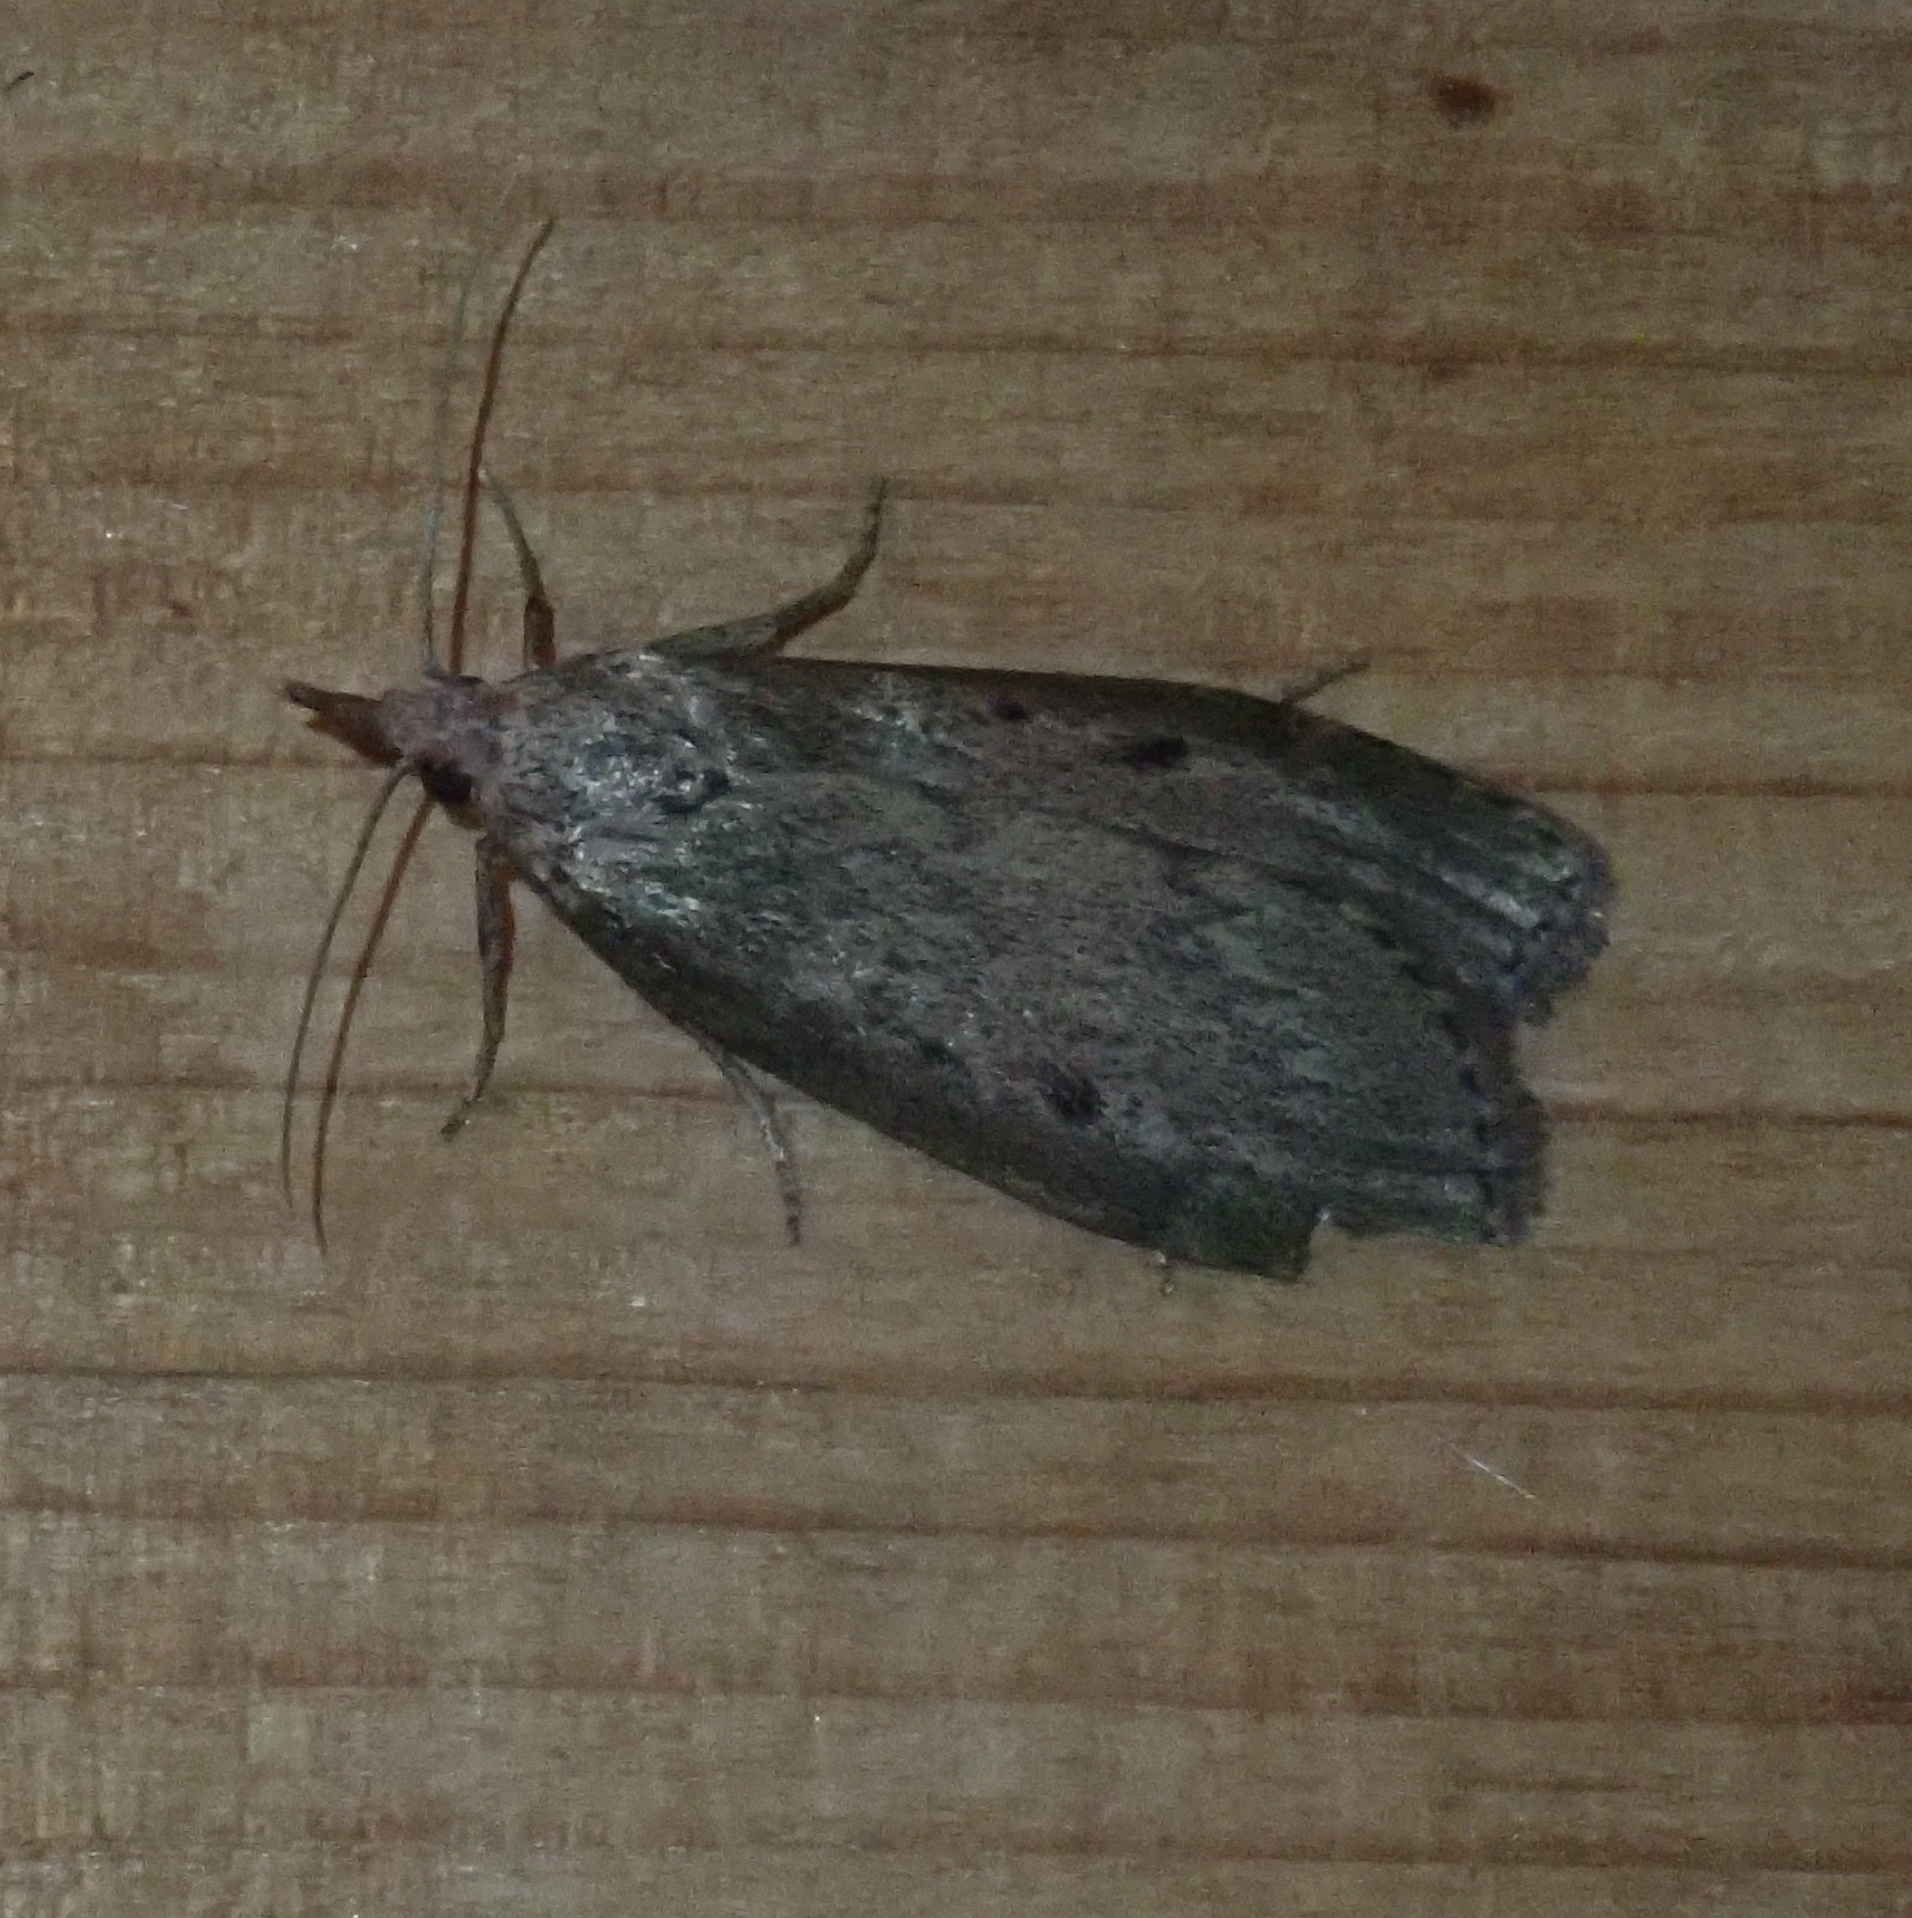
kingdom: Animalia
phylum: Arthropoda
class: Insecta
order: Lepidoptera
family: Pyralidae
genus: Aphomia
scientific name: Aphomia sociella
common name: Bee moth
